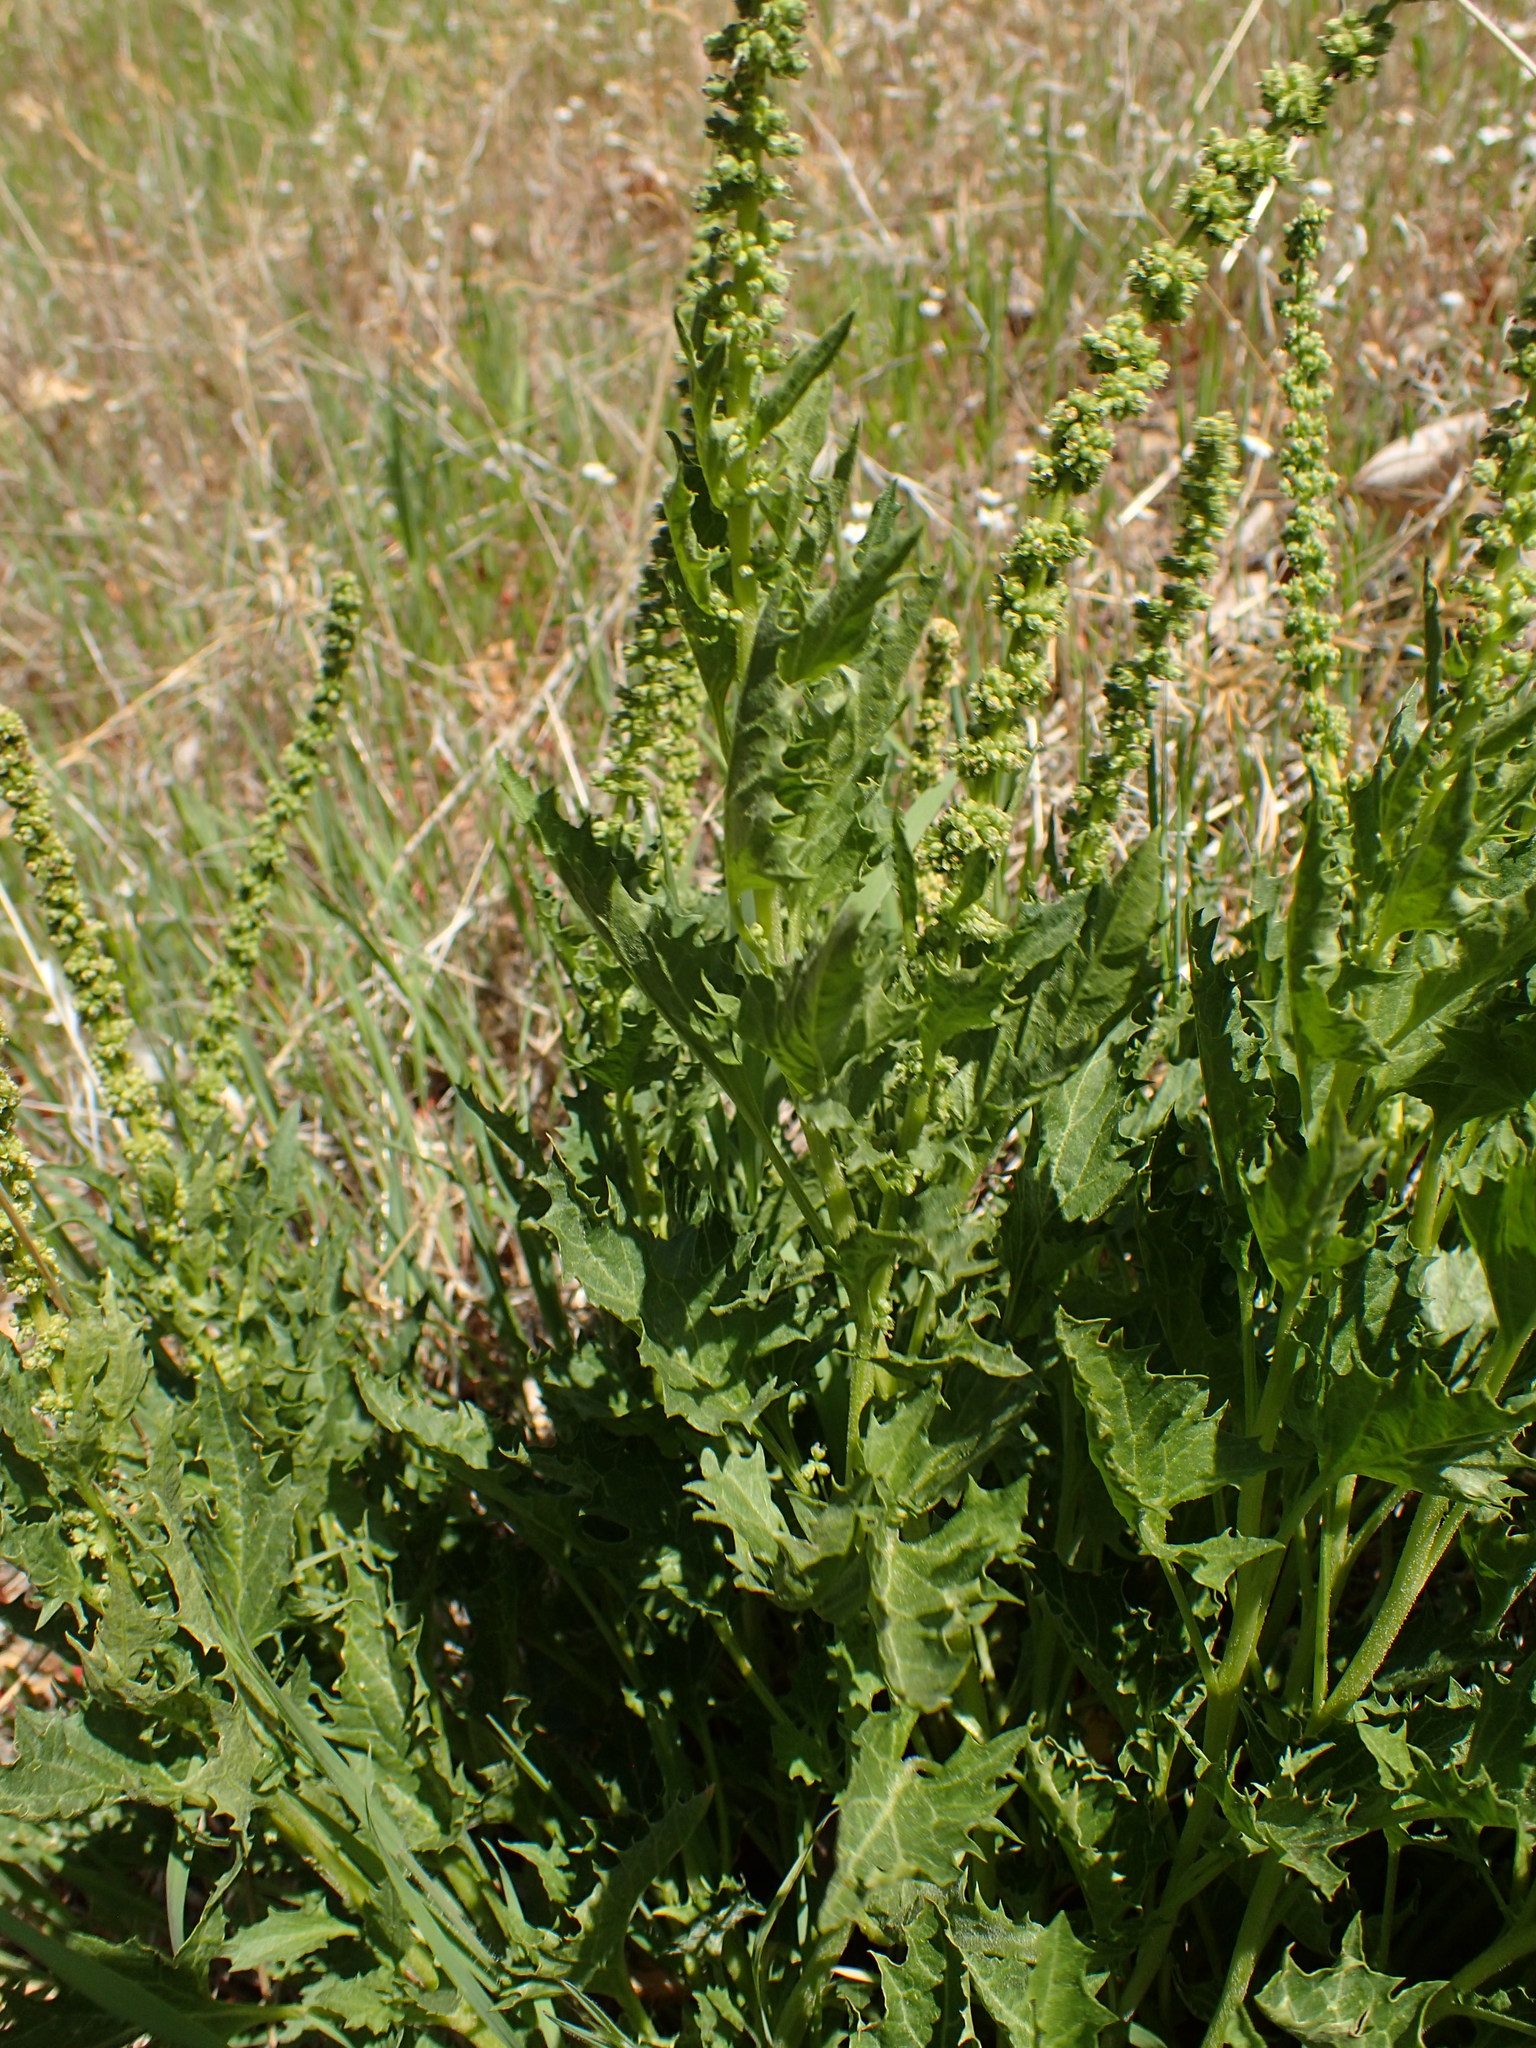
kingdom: Plantae
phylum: Tracheophyta
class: Magnoliopsida
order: Caryophyllales
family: Amaranthaceae
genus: Blitum
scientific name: Blitum californicum
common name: California goosefoot
